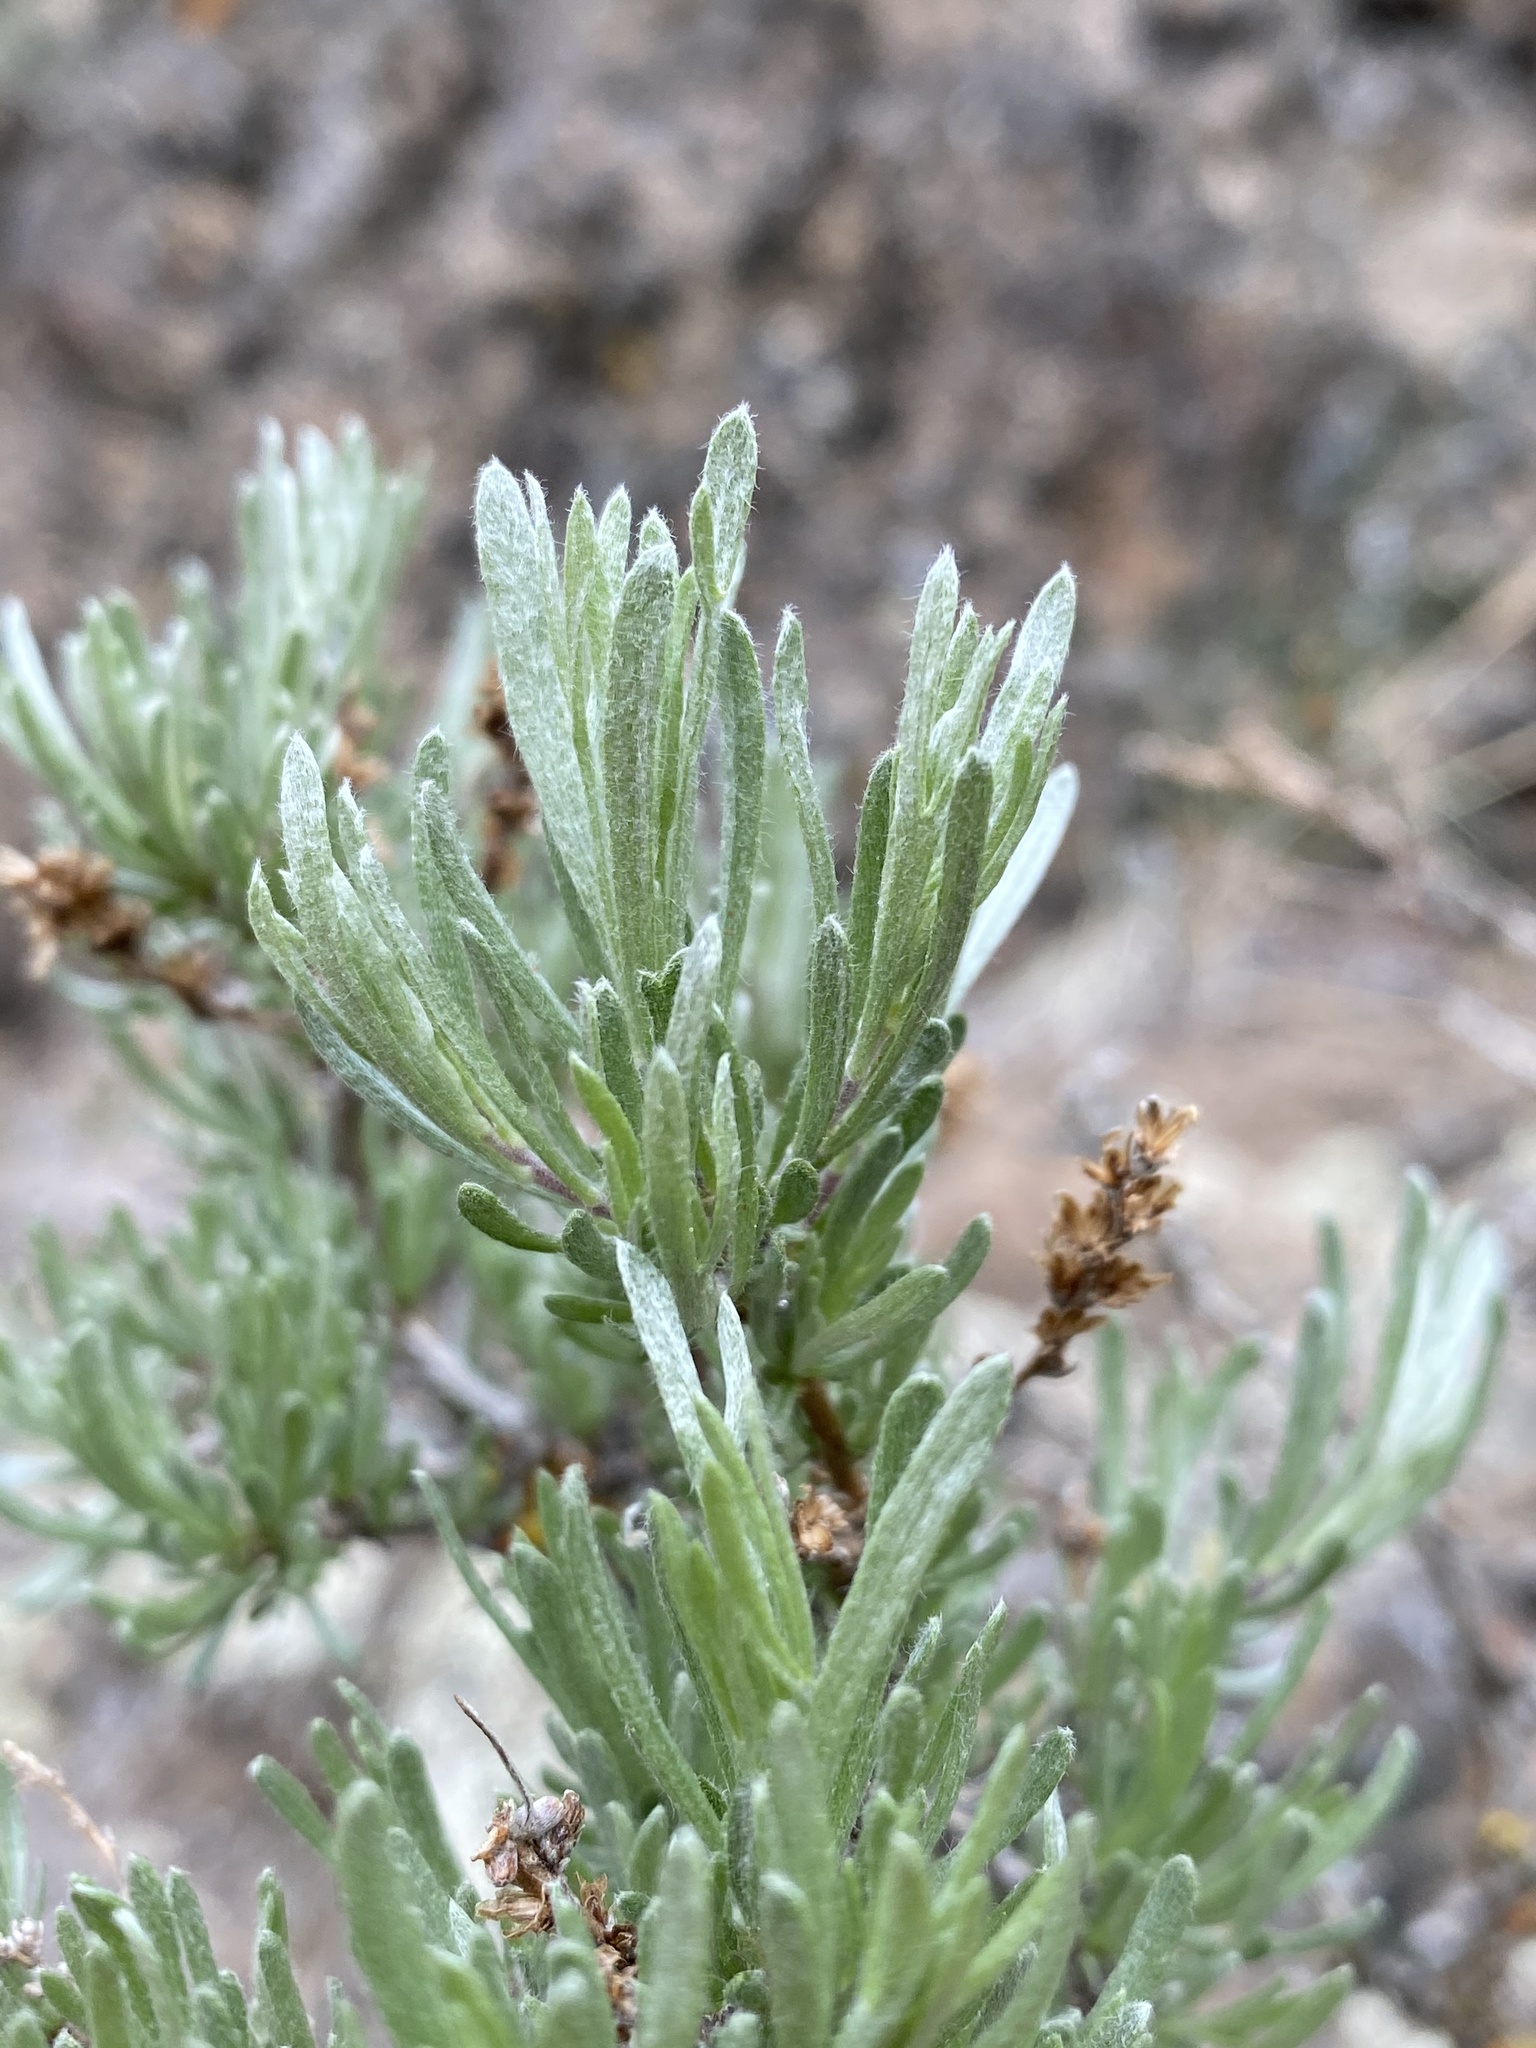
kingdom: Plantae
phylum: Tracheophyta
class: Magnoliopsida
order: Asterales
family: Asteraceae
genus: Artemisia
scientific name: Artemisia rigida
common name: Scabland sagebrush
